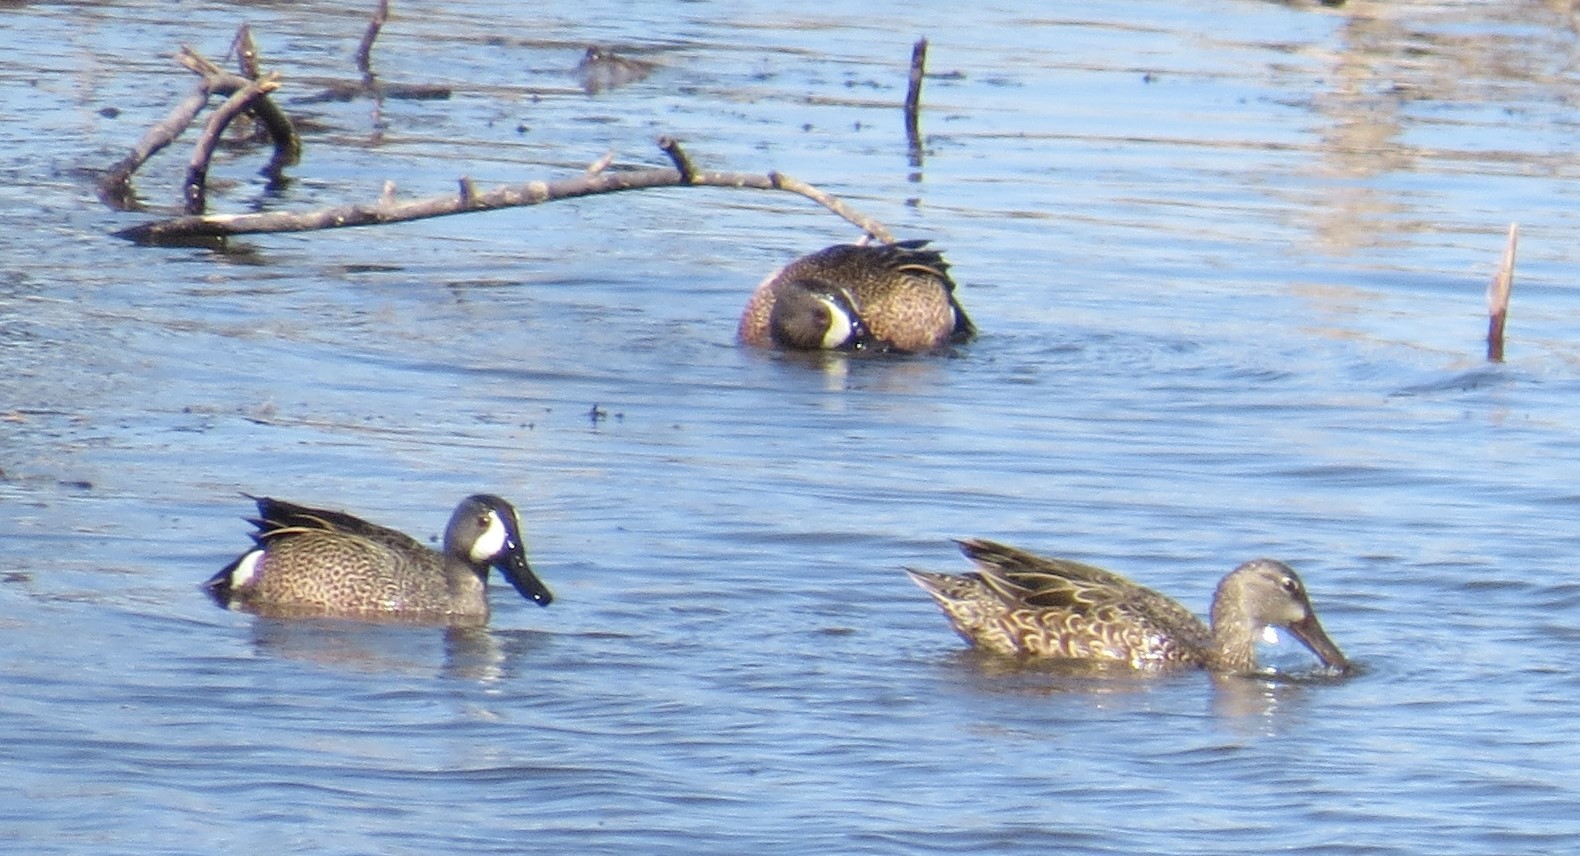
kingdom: Animalia
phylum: Chordata
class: Aves
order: Anseriformes
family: Anatidae
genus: Spatula
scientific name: Spatula discors
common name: Blue-winged teal
